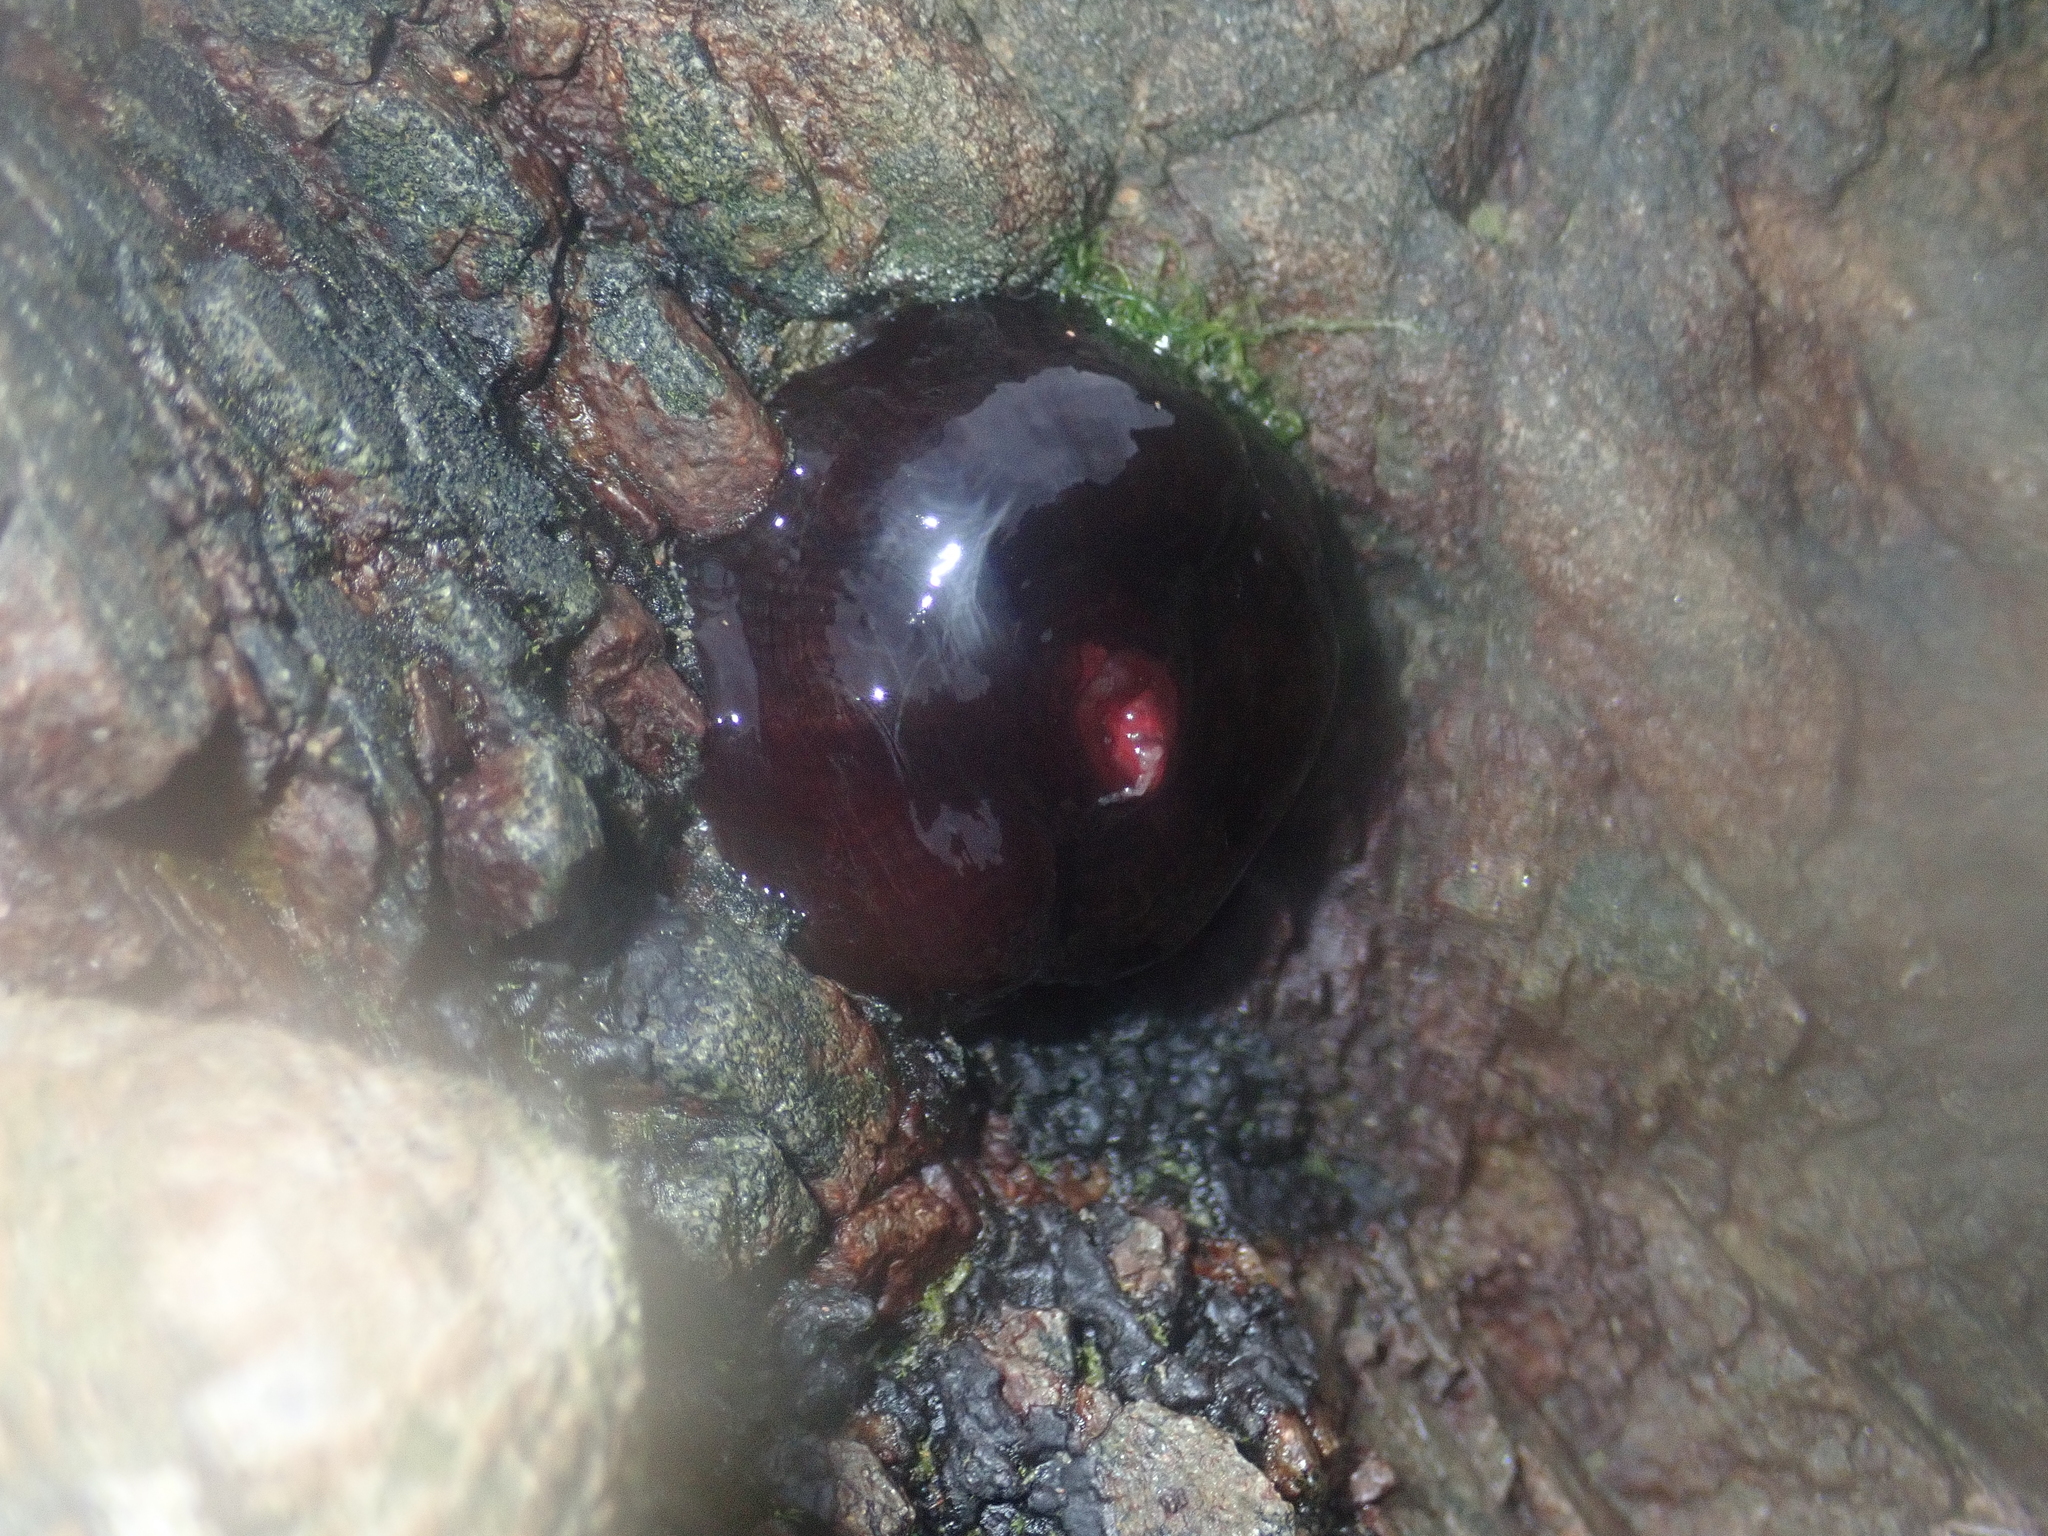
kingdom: Animalia
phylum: Cnidaria
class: Anthozoa
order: Actiniaria
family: Actiniidae
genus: Actinia
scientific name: Actinia tenebrosa
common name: Waratah anemone
